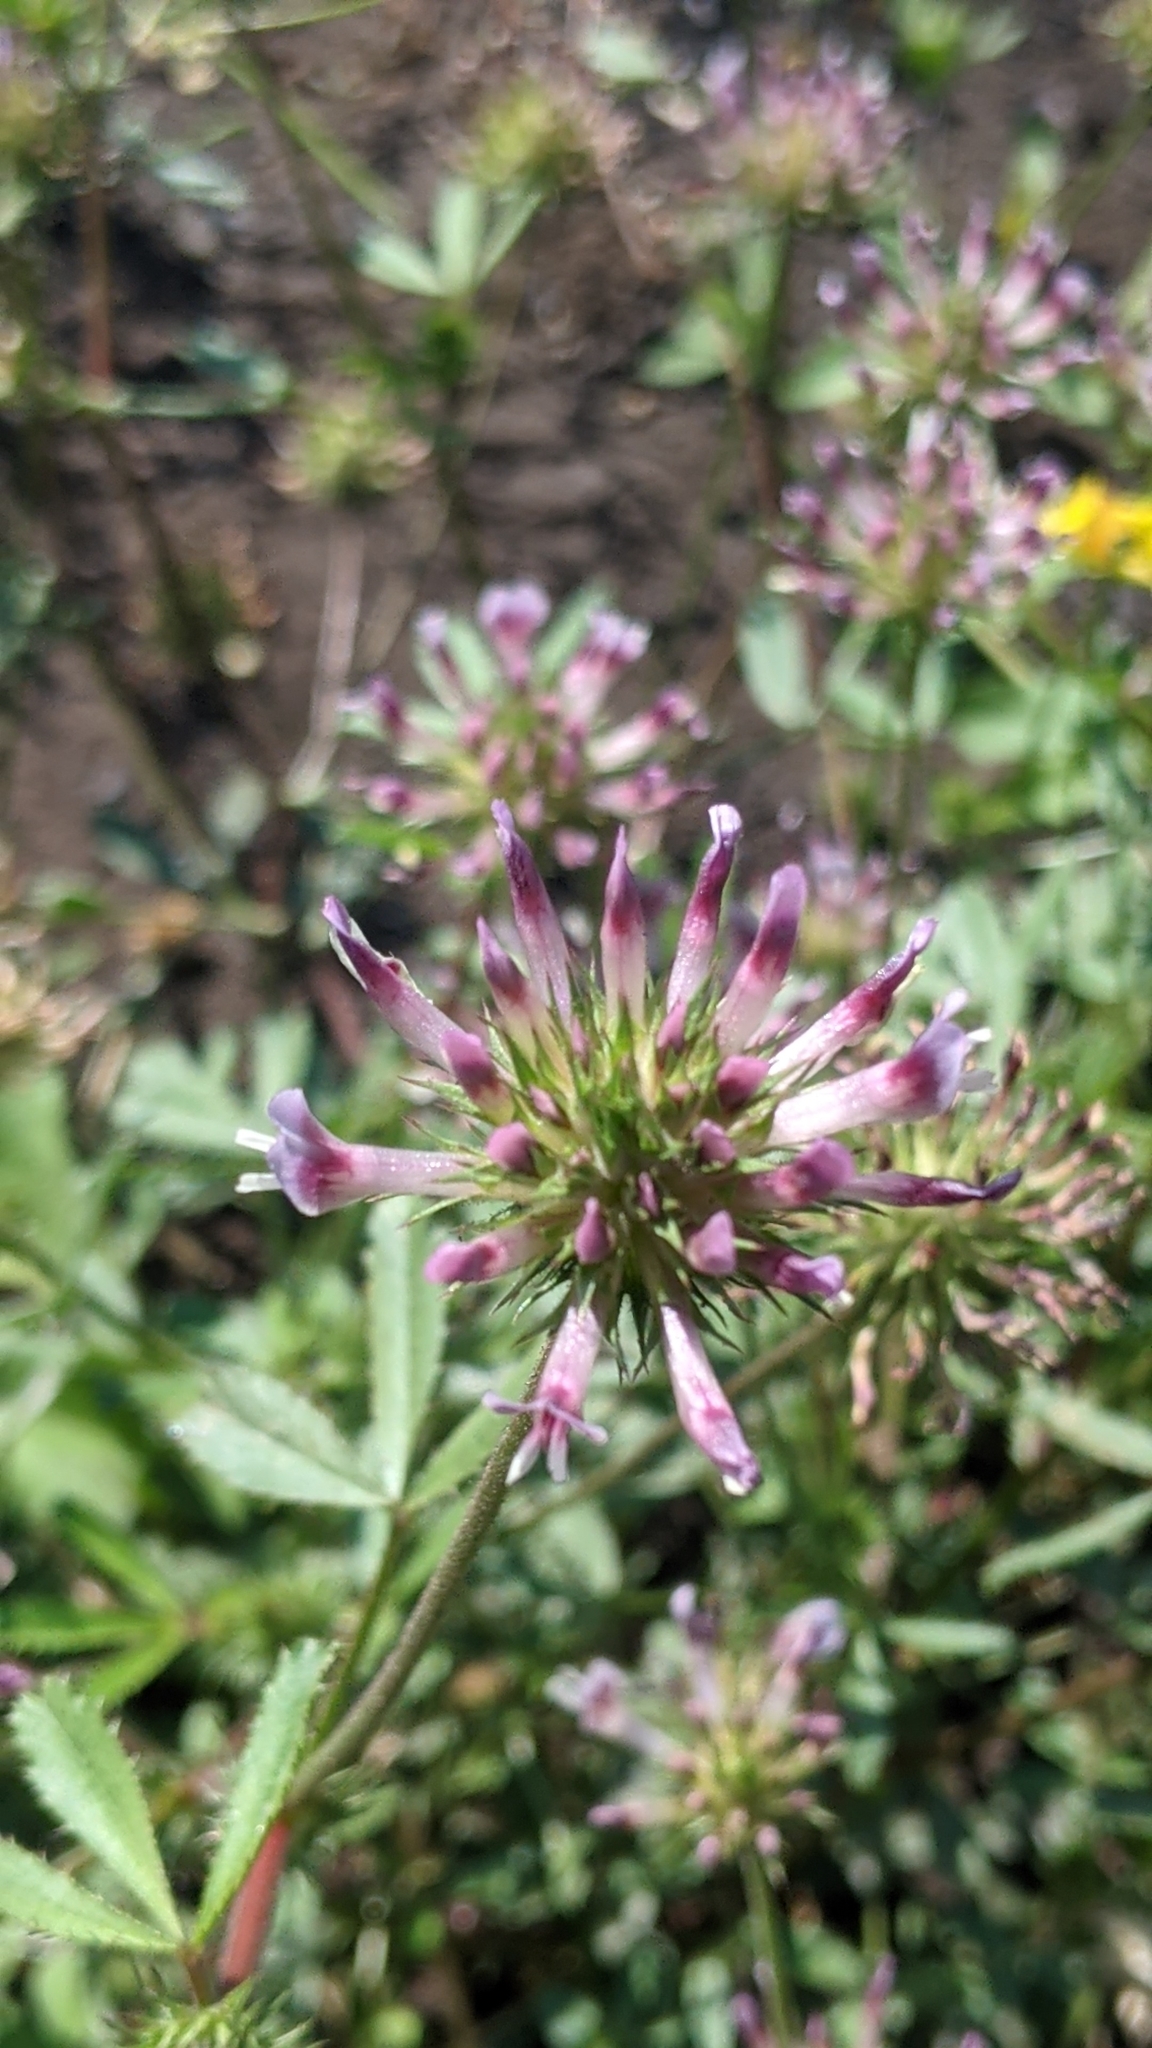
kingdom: Plantae
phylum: Tracheophyta
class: Magnoliopsida
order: Fabales
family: Fabaceae
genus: Trifolium
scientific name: Trifolium obtusiflorum
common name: Clammy clover
